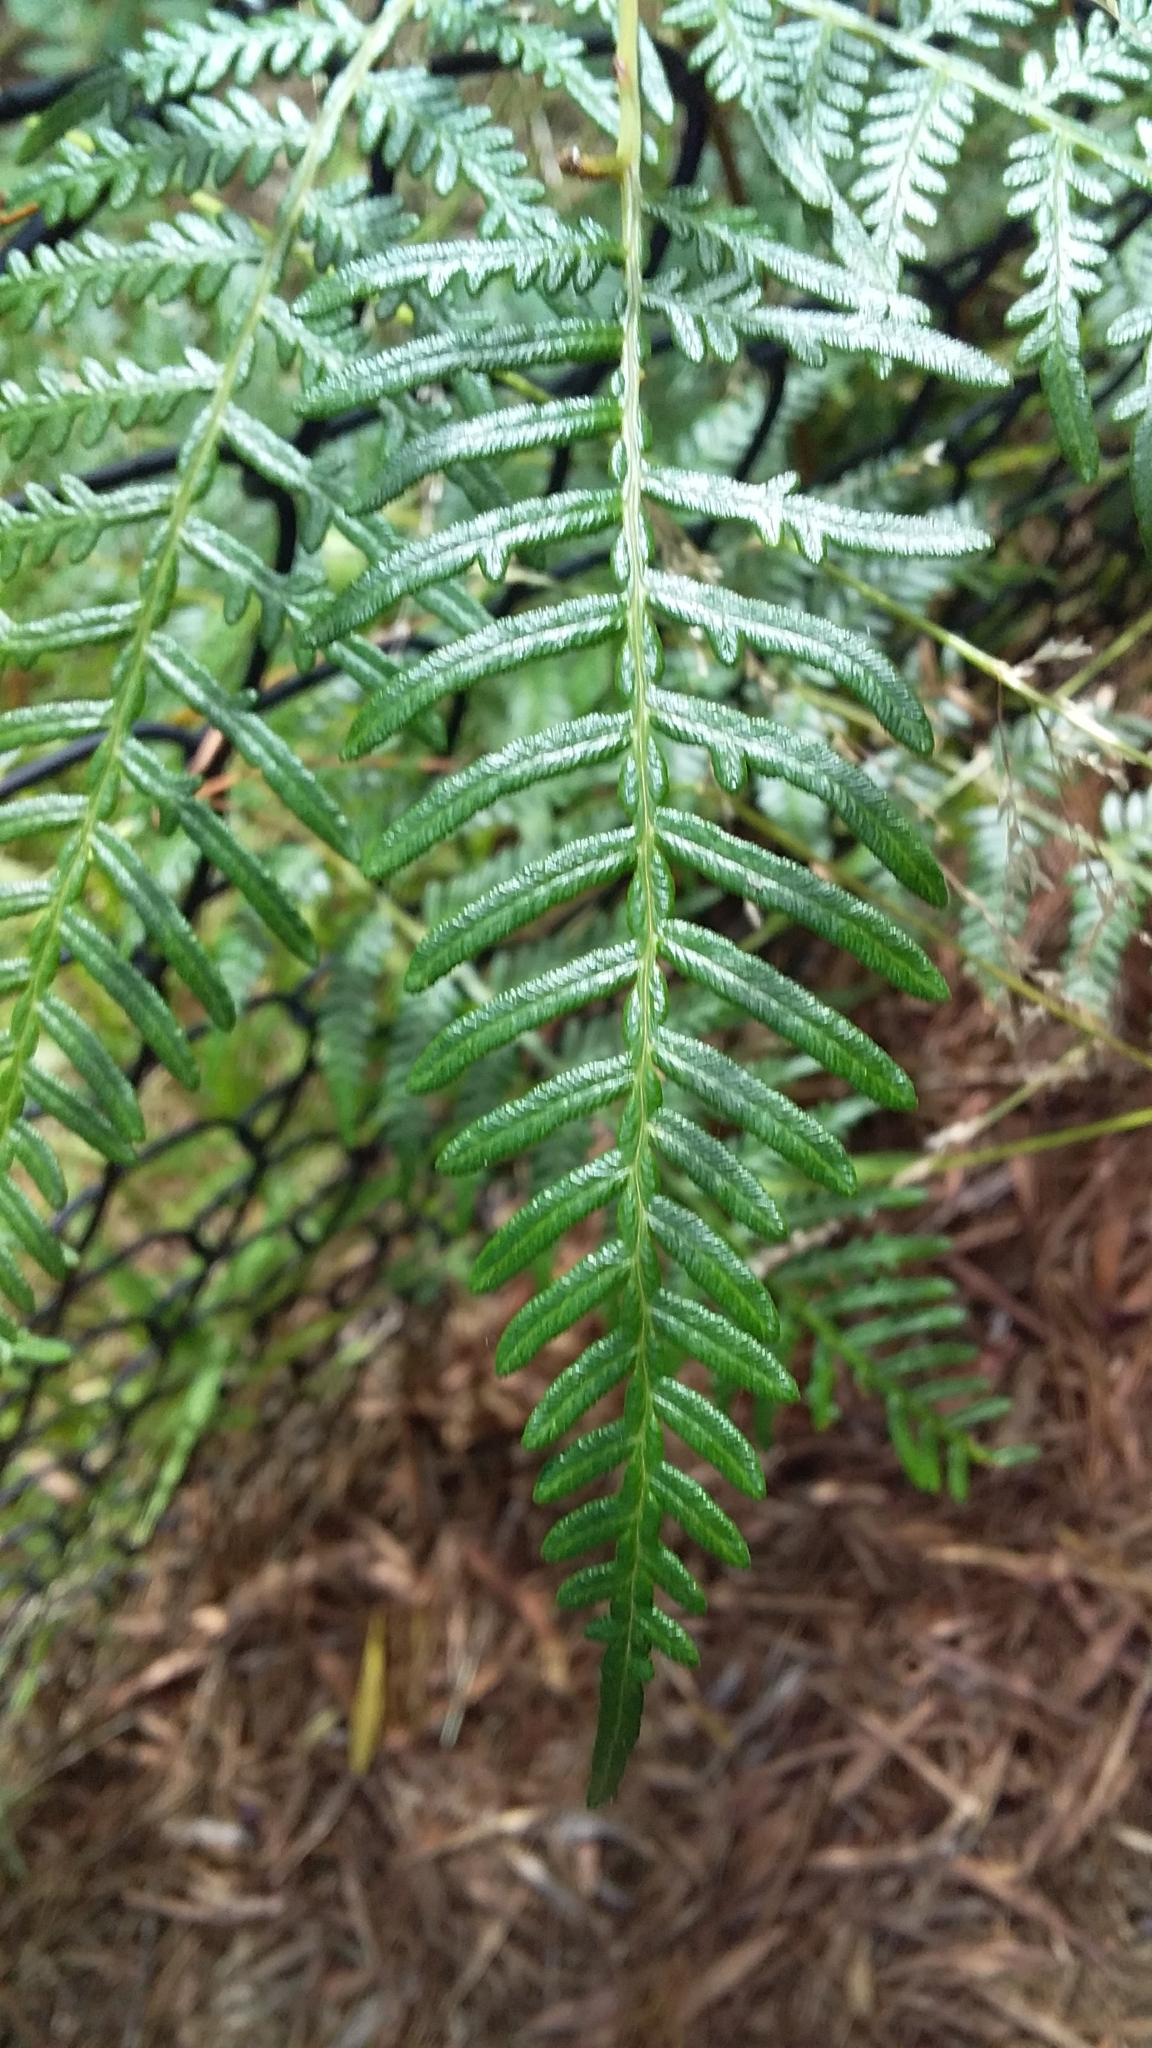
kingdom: Plantae
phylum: Tracheophyta
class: Polypodiopsida
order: Polypodiales
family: Dennstaedtiaceae
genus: Pteridium
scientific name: Pteridium esculentum
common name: Bracken fern
